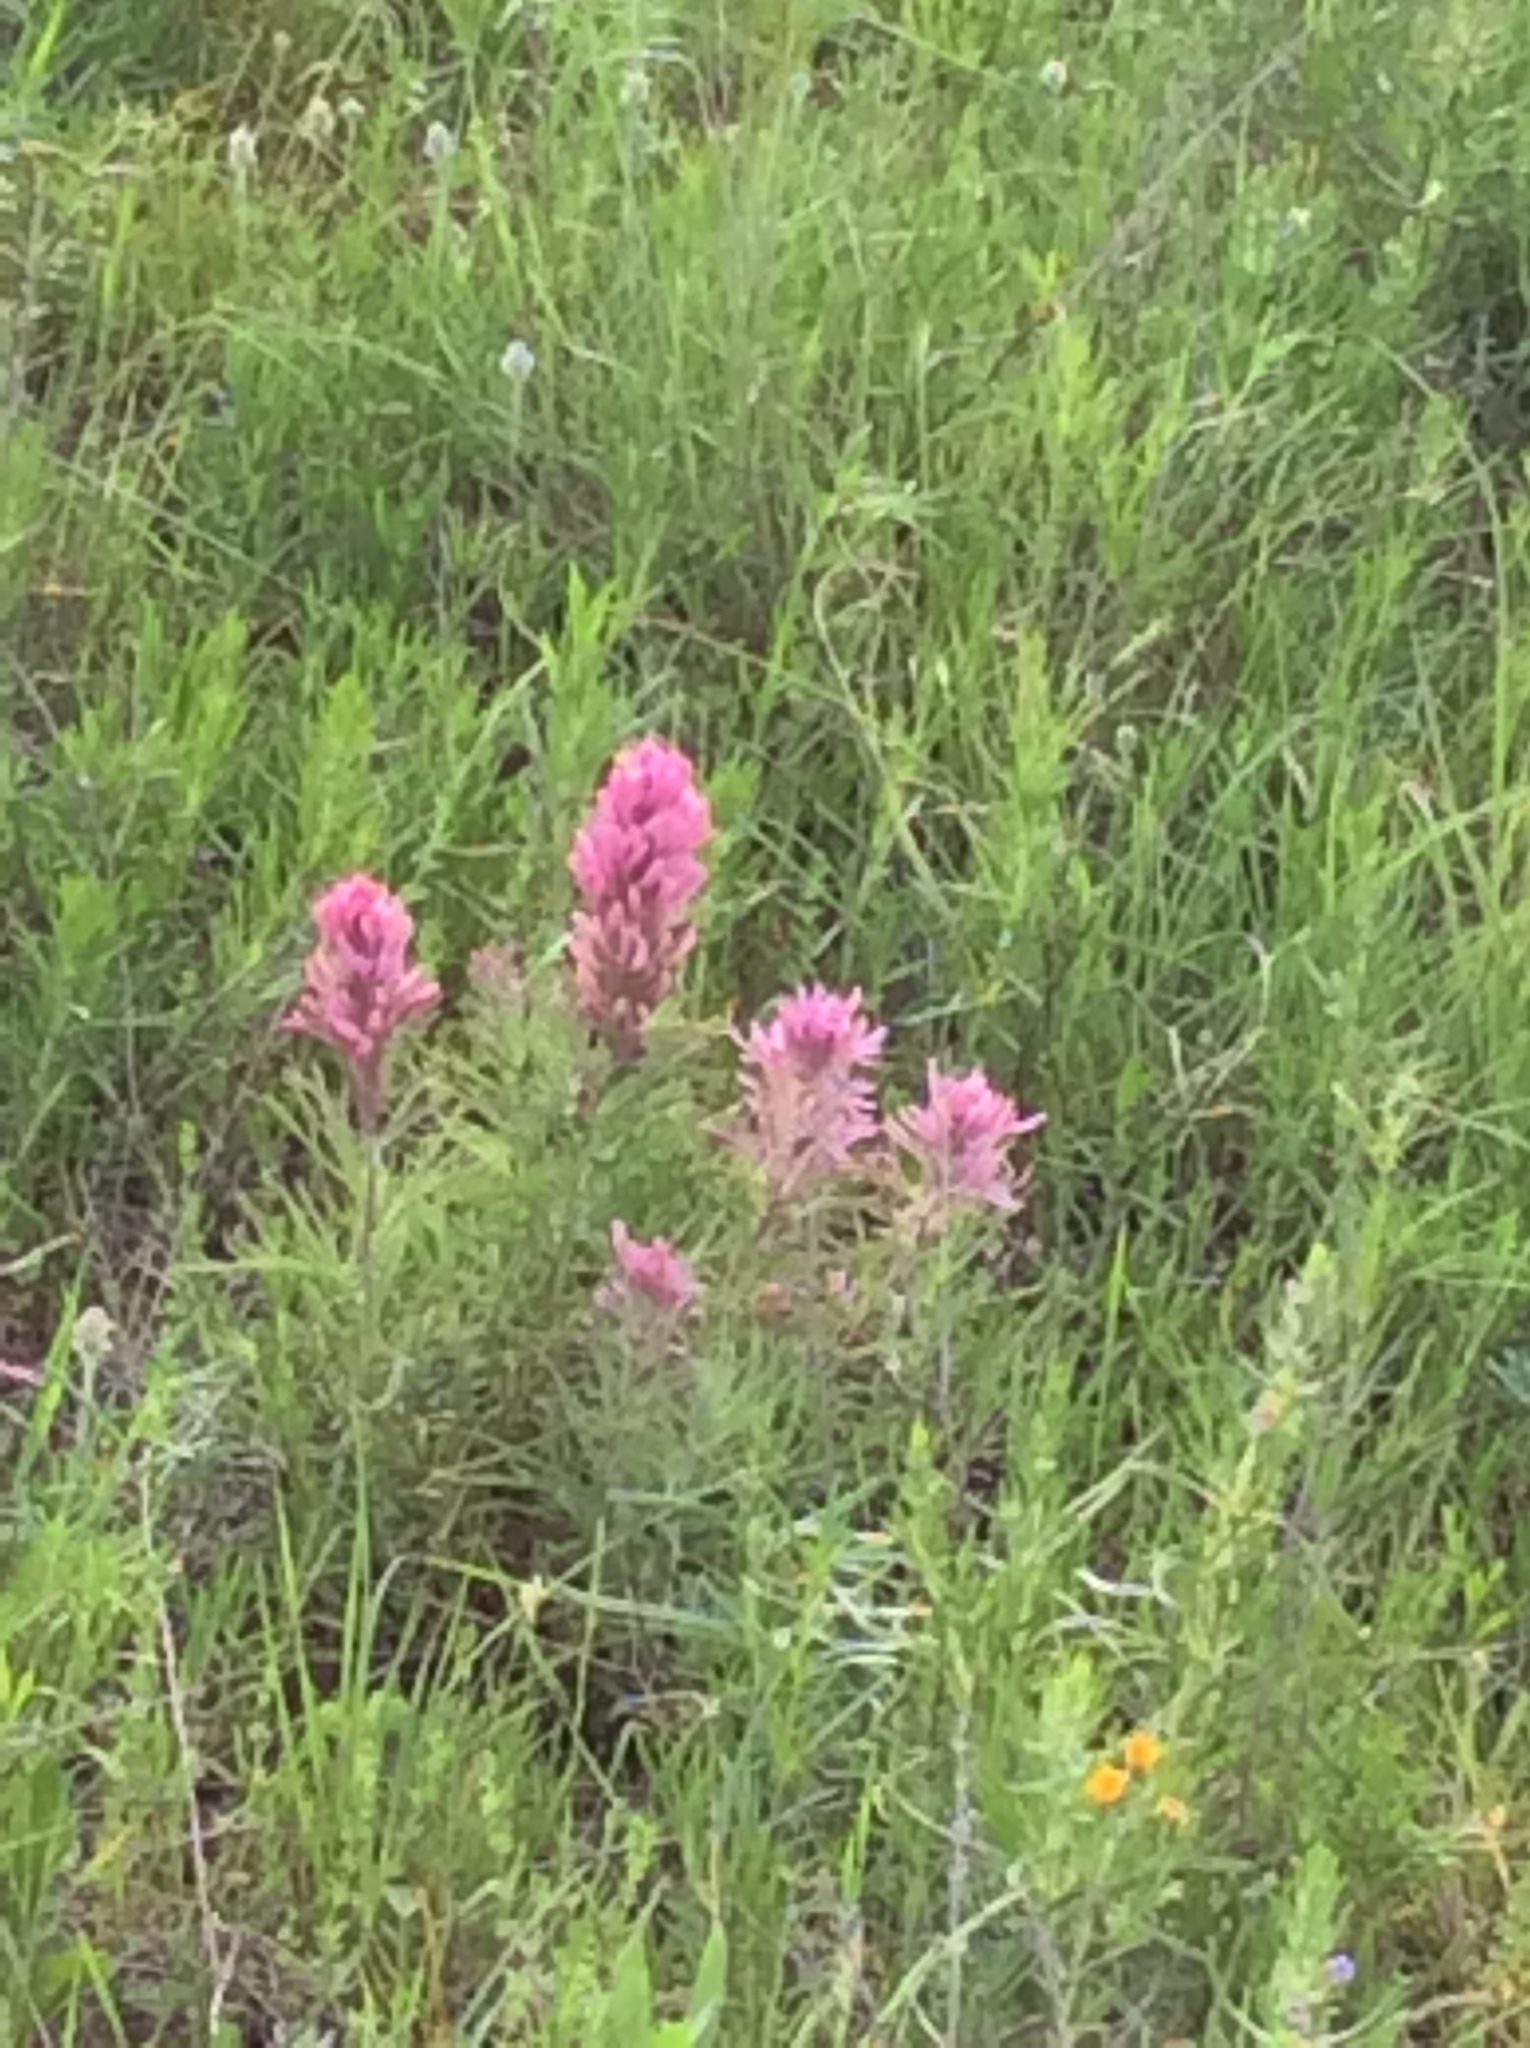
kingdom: Plantae
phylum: Tracheophyta
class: Magnoliopsida
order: Lamiales
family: Orobanchaceae
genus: Castilleja
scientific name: Castilleja purpurea
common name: Plains paintbrush
